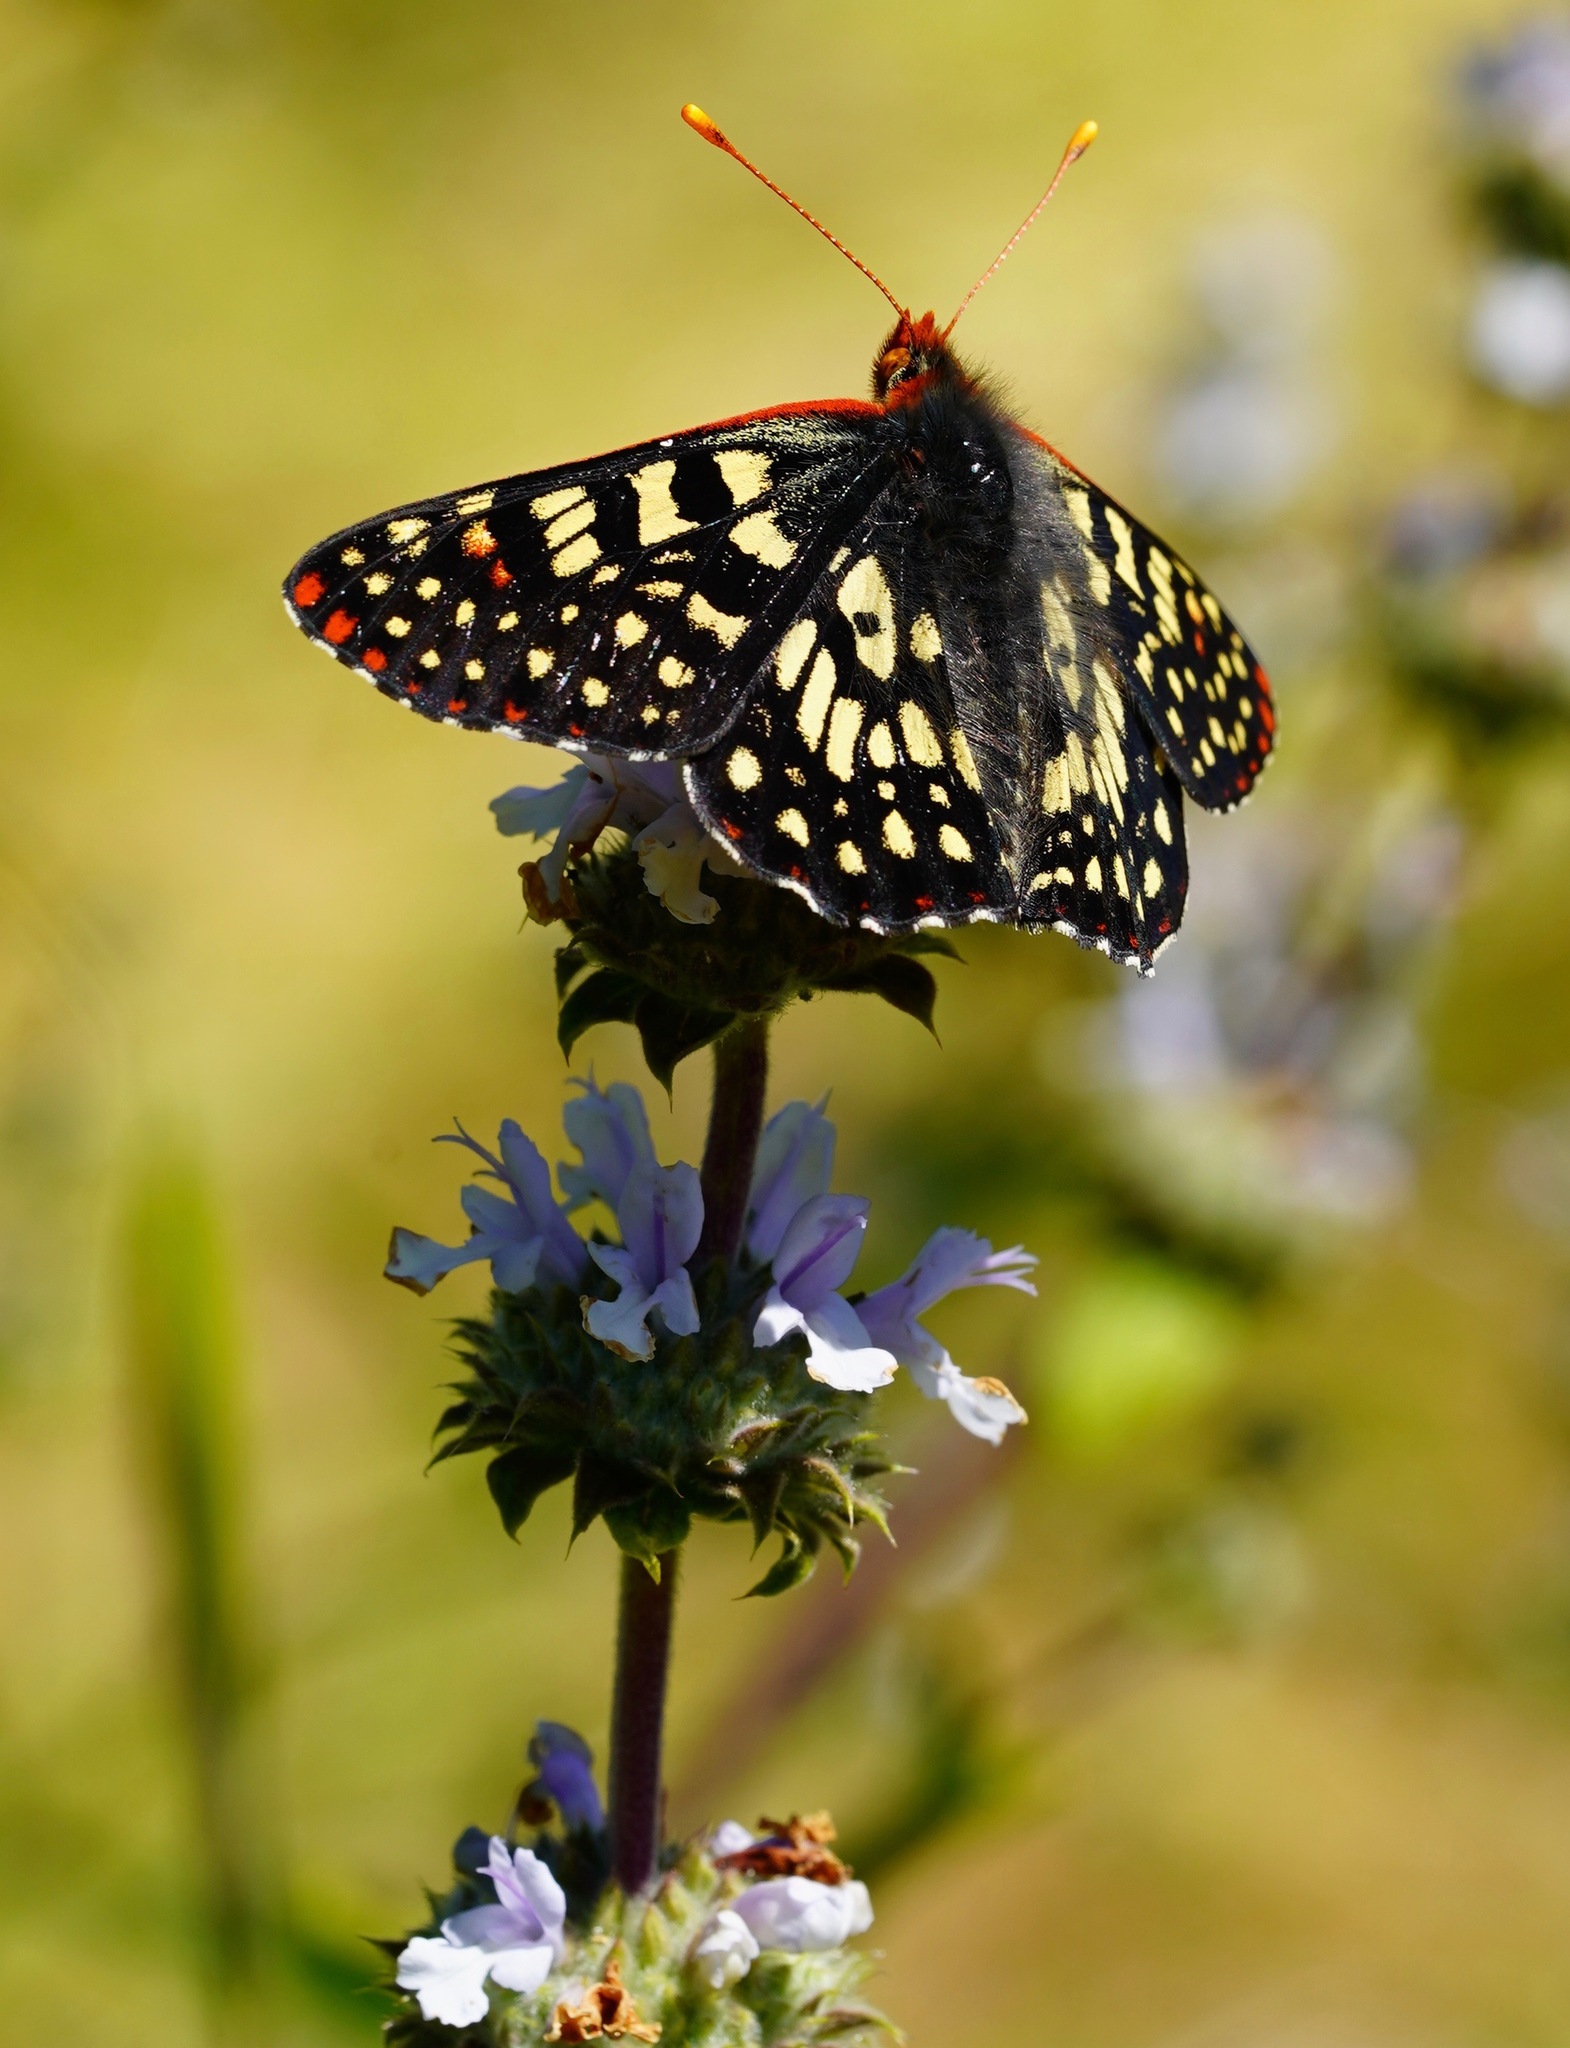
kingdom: Animalia
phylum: Arthropoda
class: Insecta
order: Lepidoptera
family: Nymphalidae
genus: Occidryas
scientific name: Occidryas chalcedona
